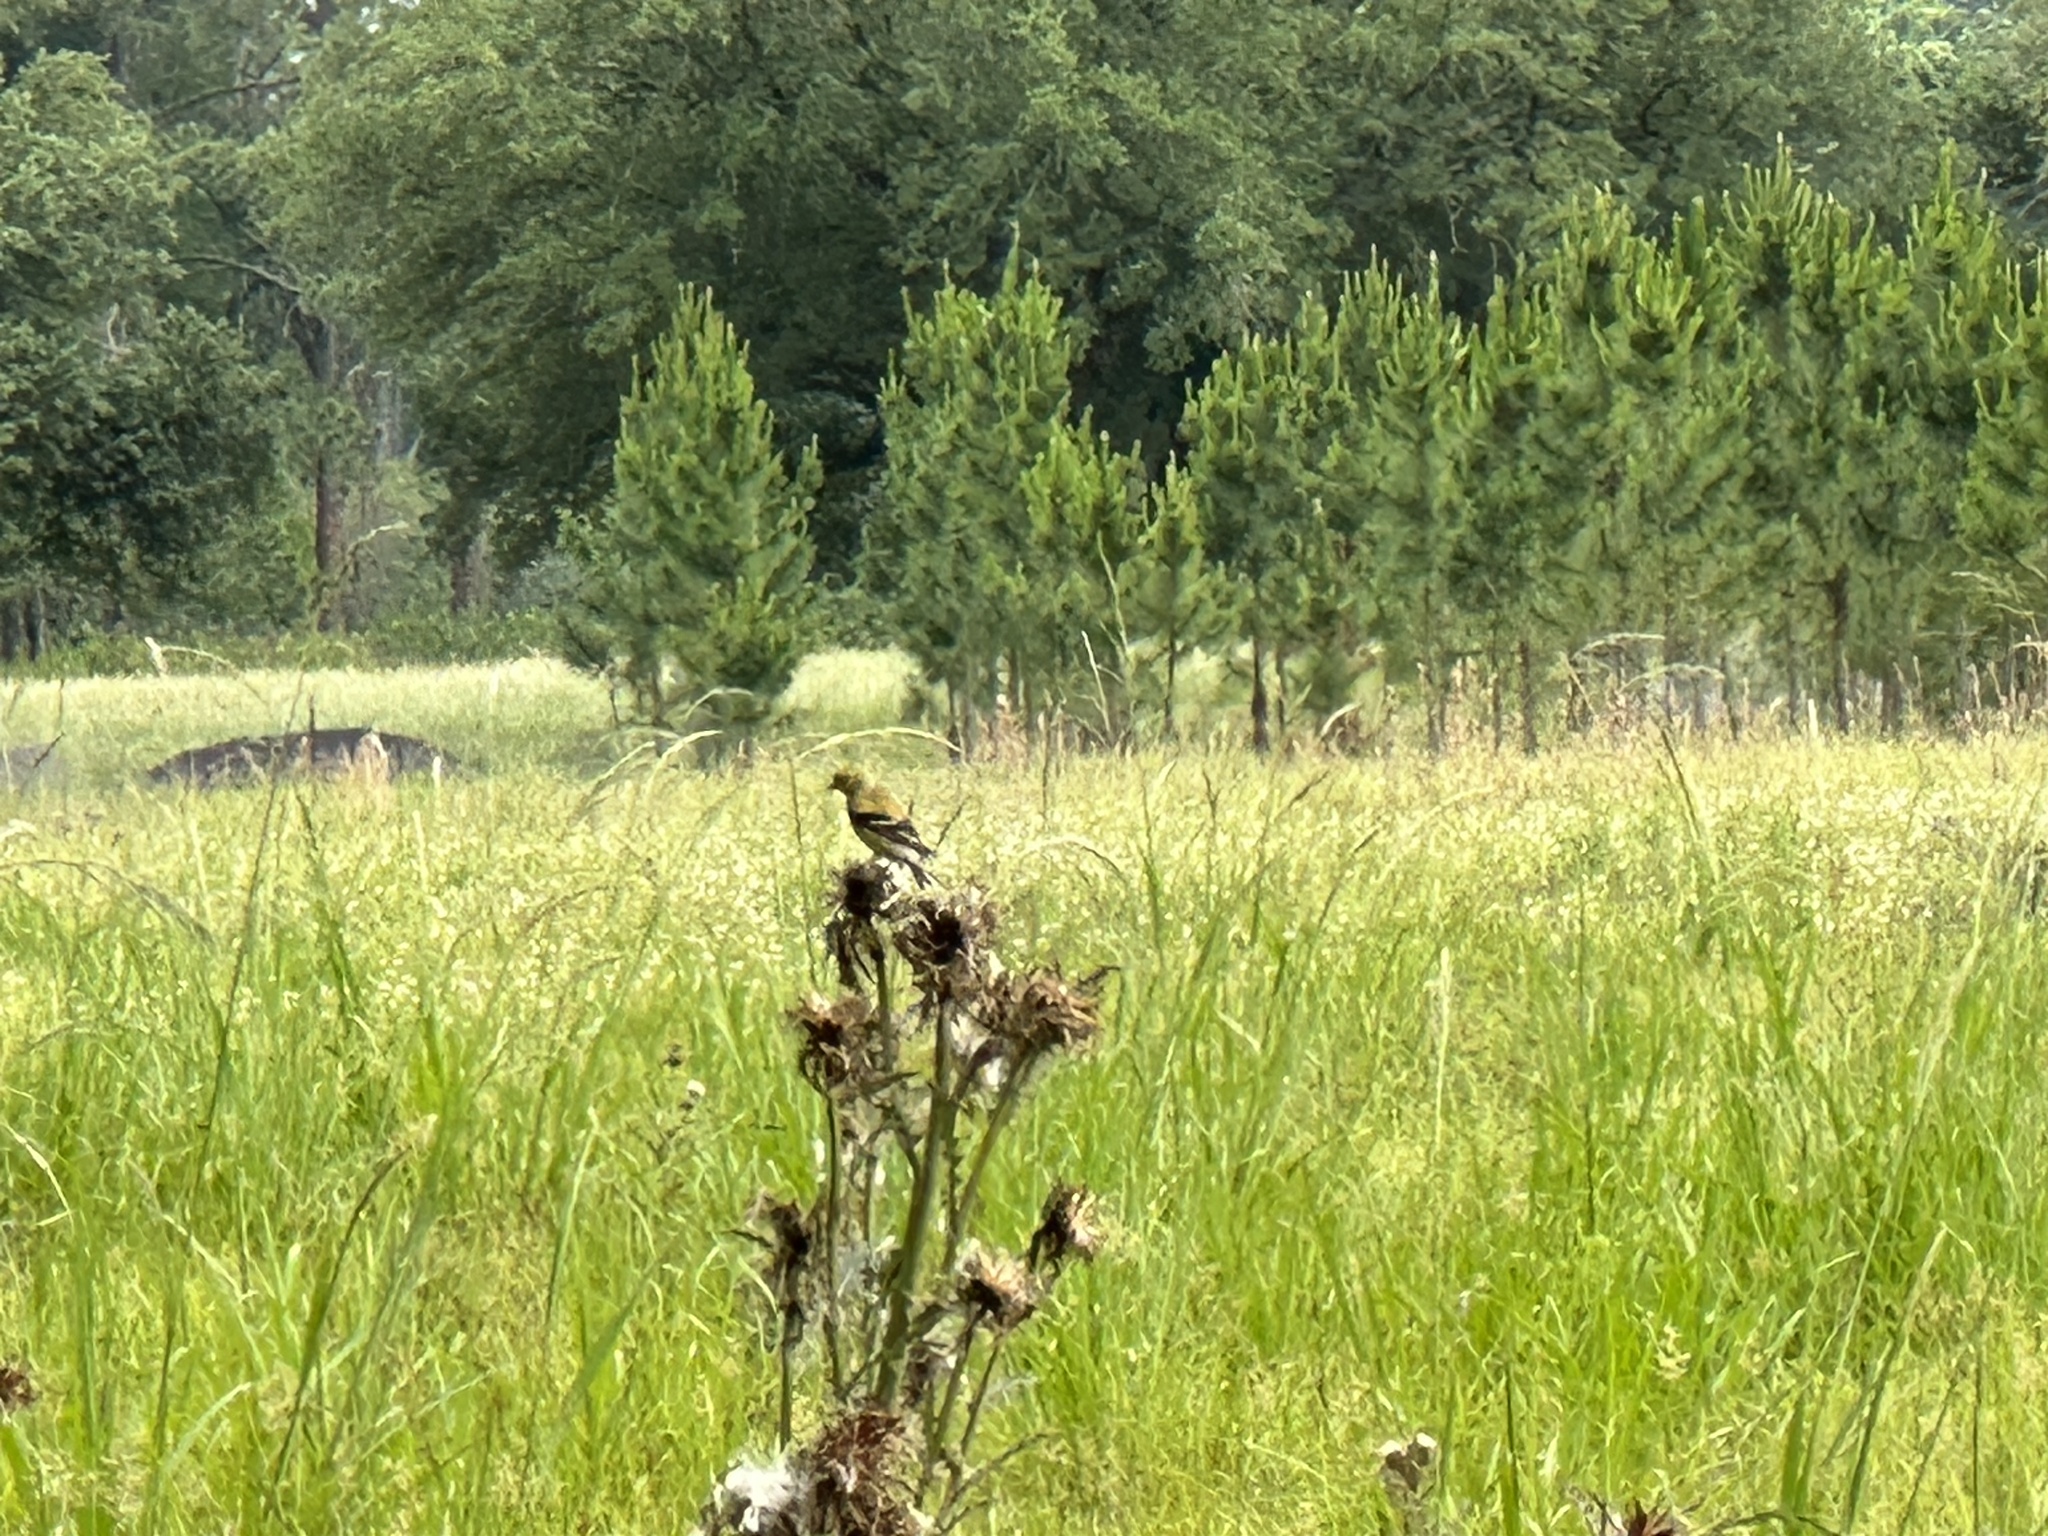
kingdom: Animalia
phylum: Chordata
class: Aves
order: Passeriformes
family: Fringillidae
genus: Spinus
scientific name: Spinus tristis
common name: American goldfinch
